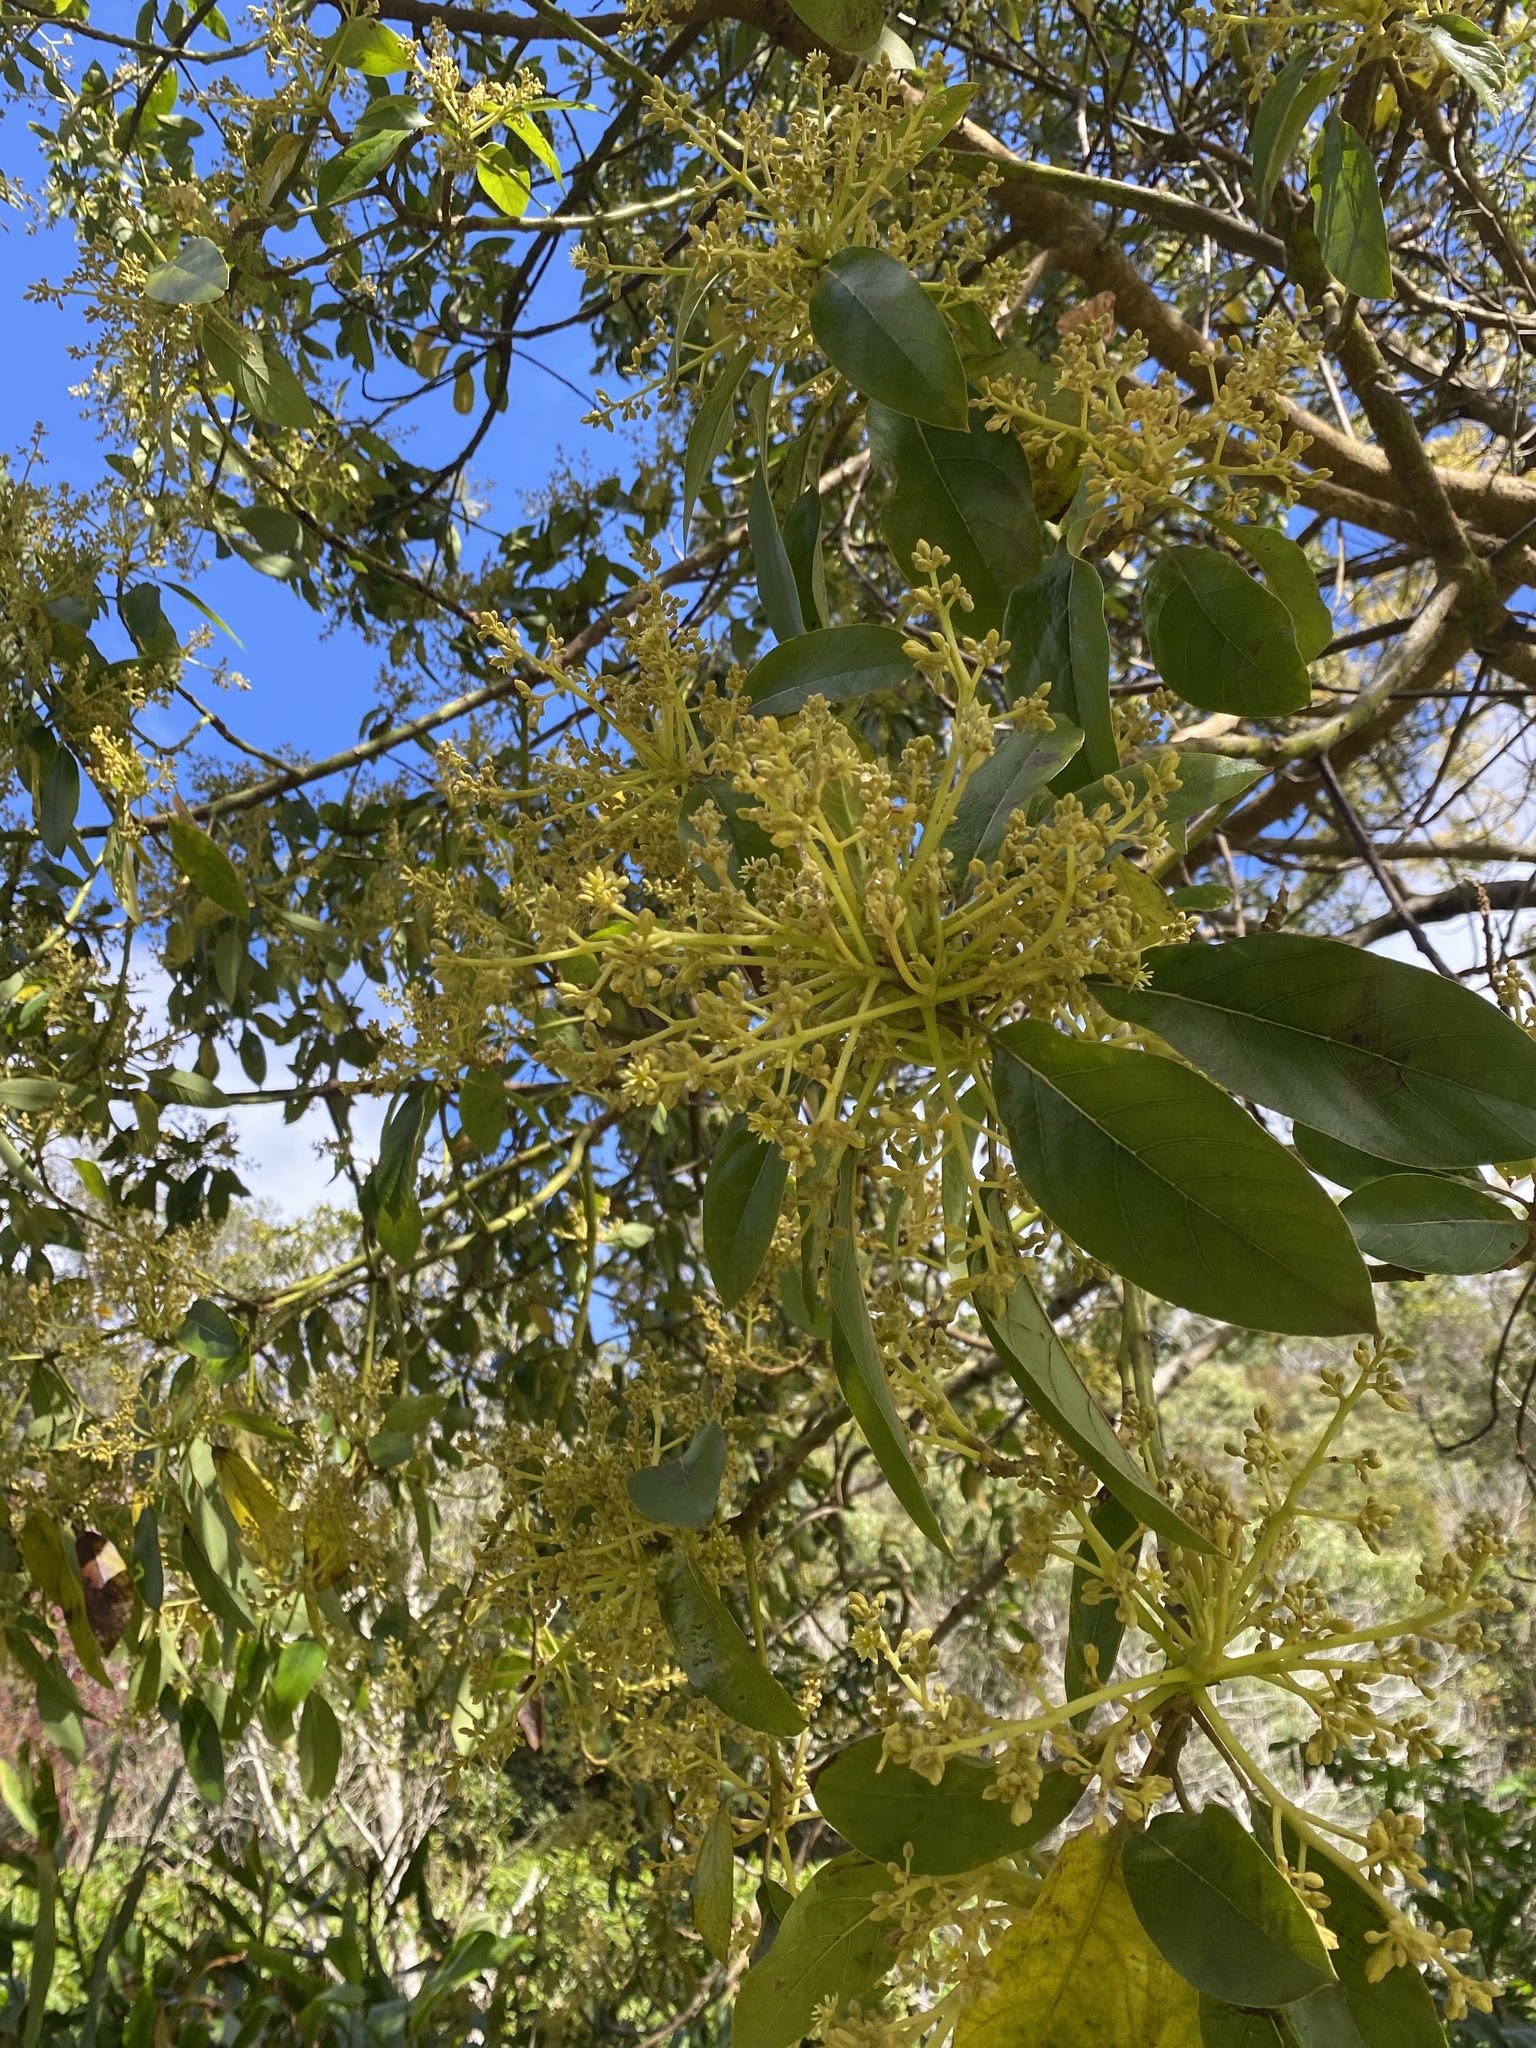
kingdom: Plantae
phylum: Tracheophyta
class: Magnoliopsida
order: Laurales
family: Lauraceae
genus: Persea
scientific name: Persea americana
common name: Avocado
